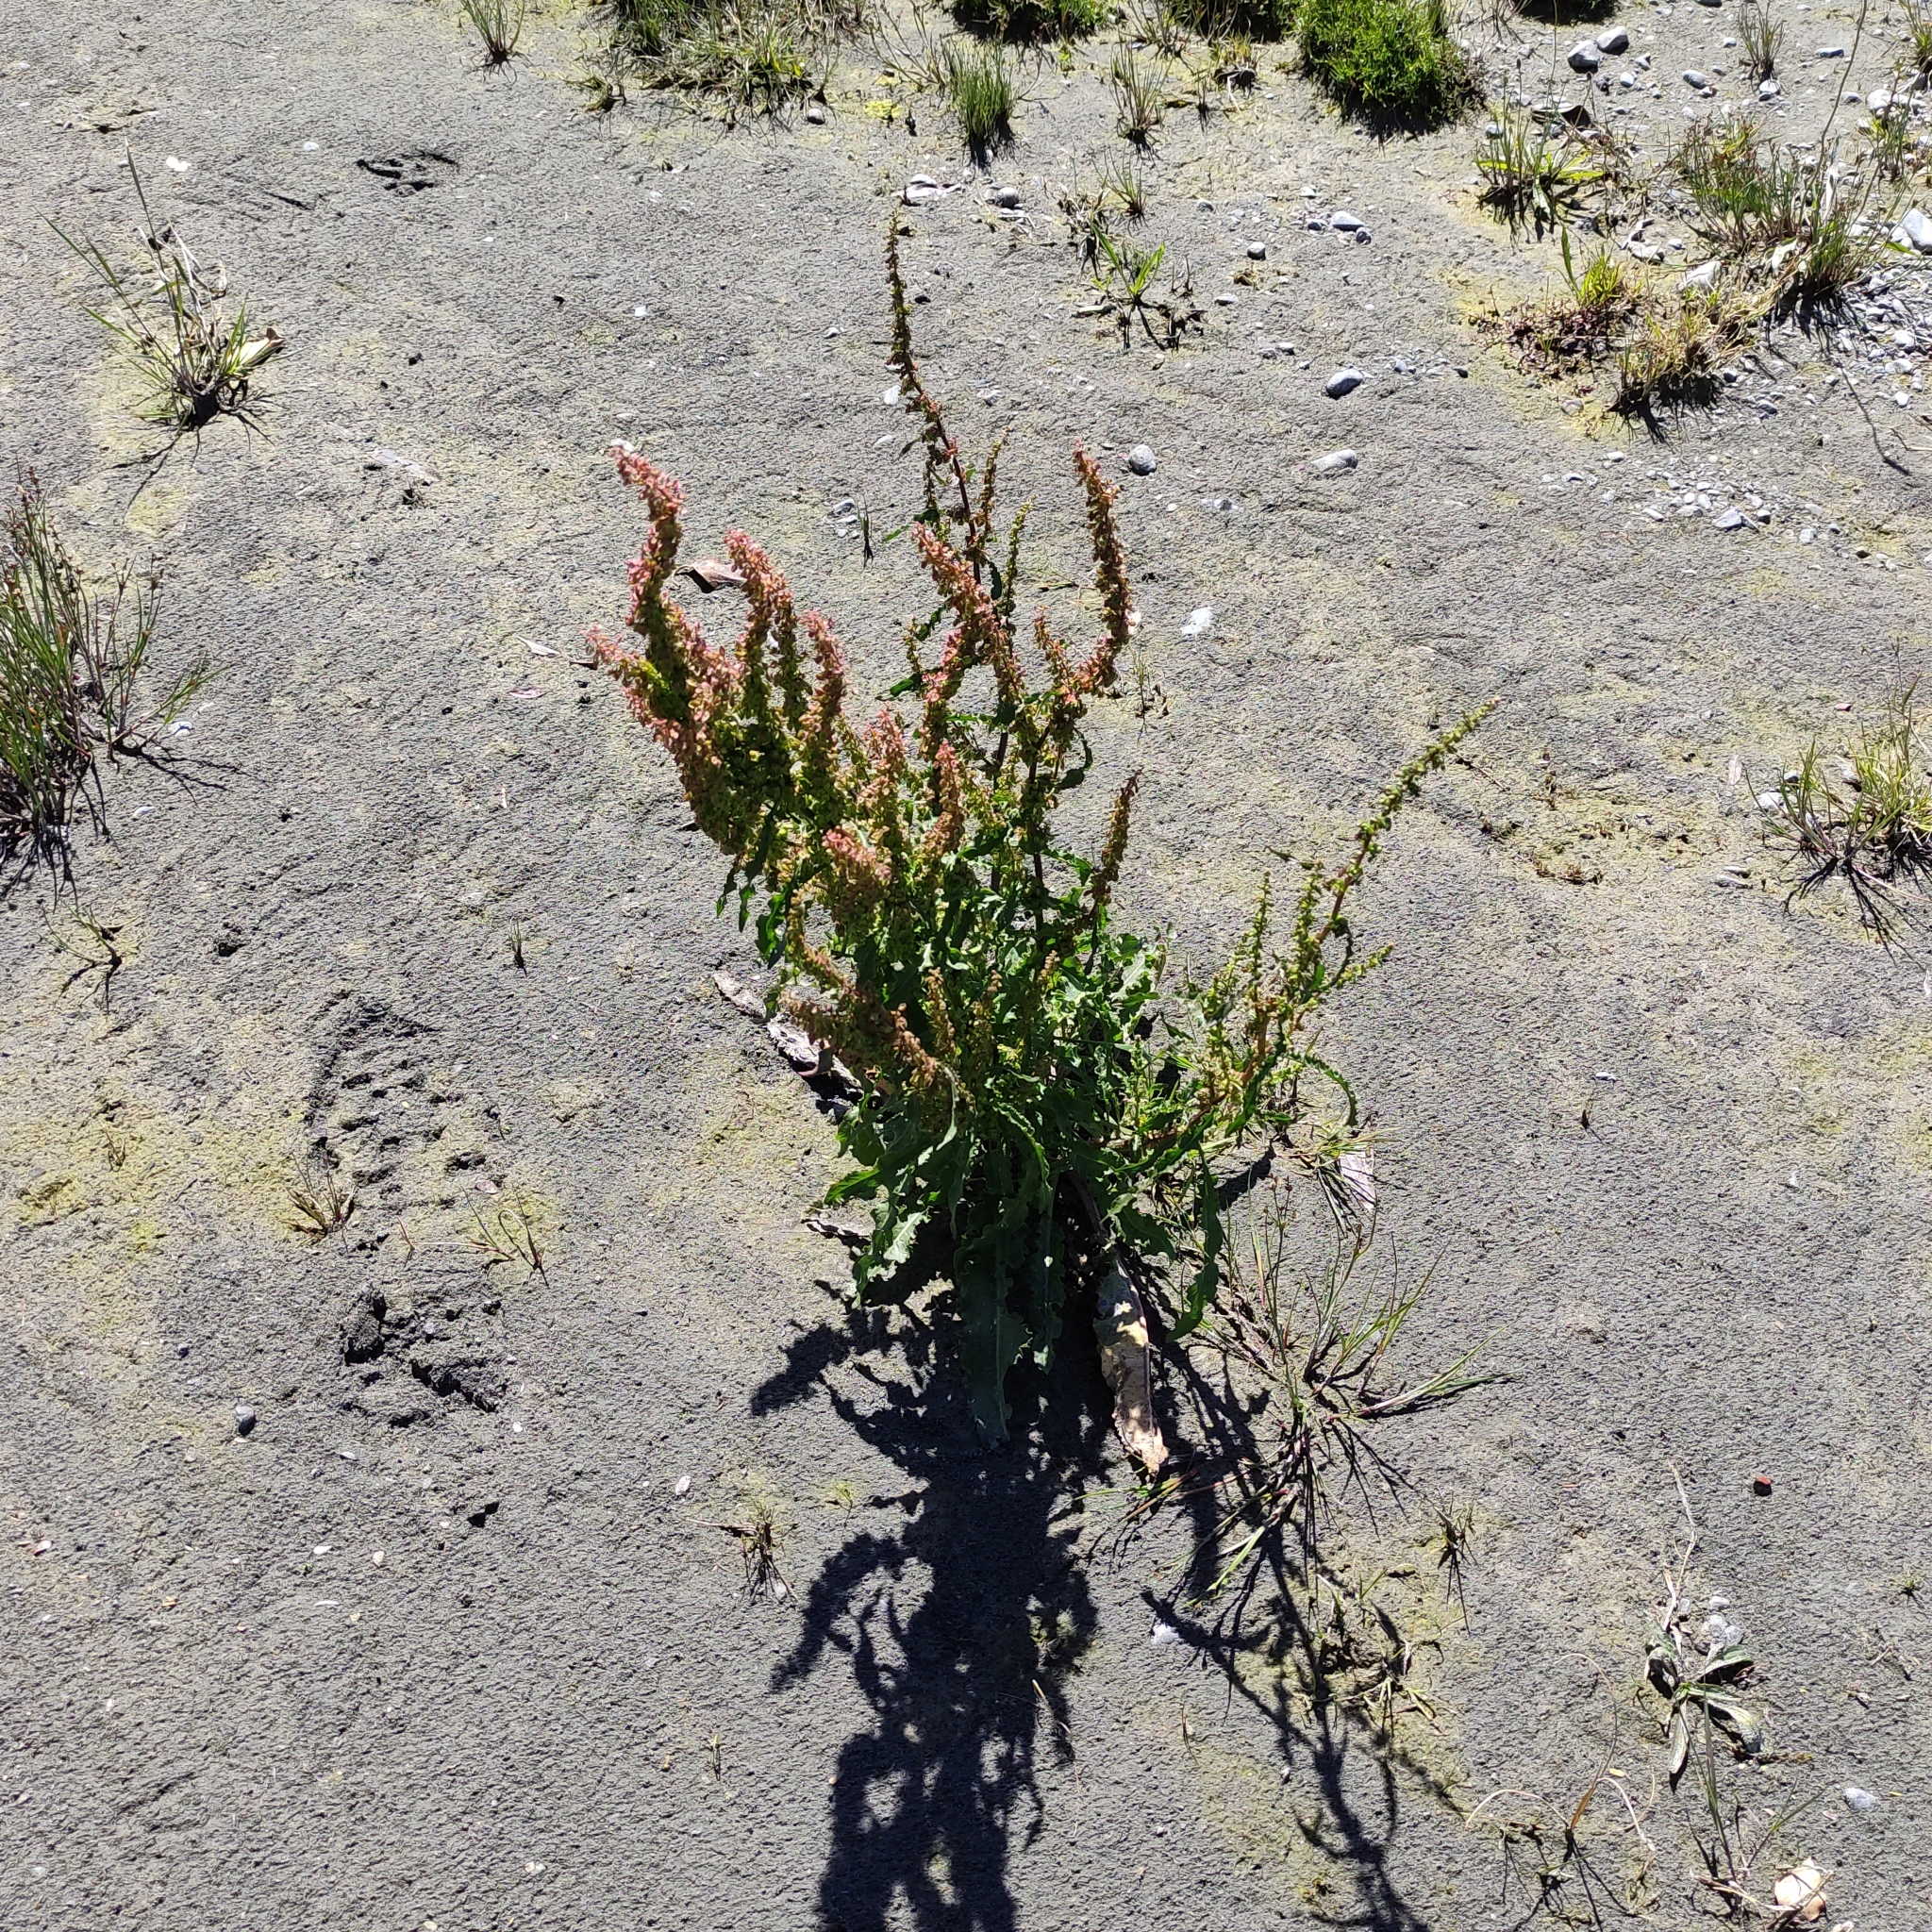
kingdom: Plantae
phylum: Tracheophyta
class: Magnoliopsida
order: Caryophyllales
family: Polygonaceae
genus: Rumex
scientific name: Rumex crispus
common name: Curled dock
